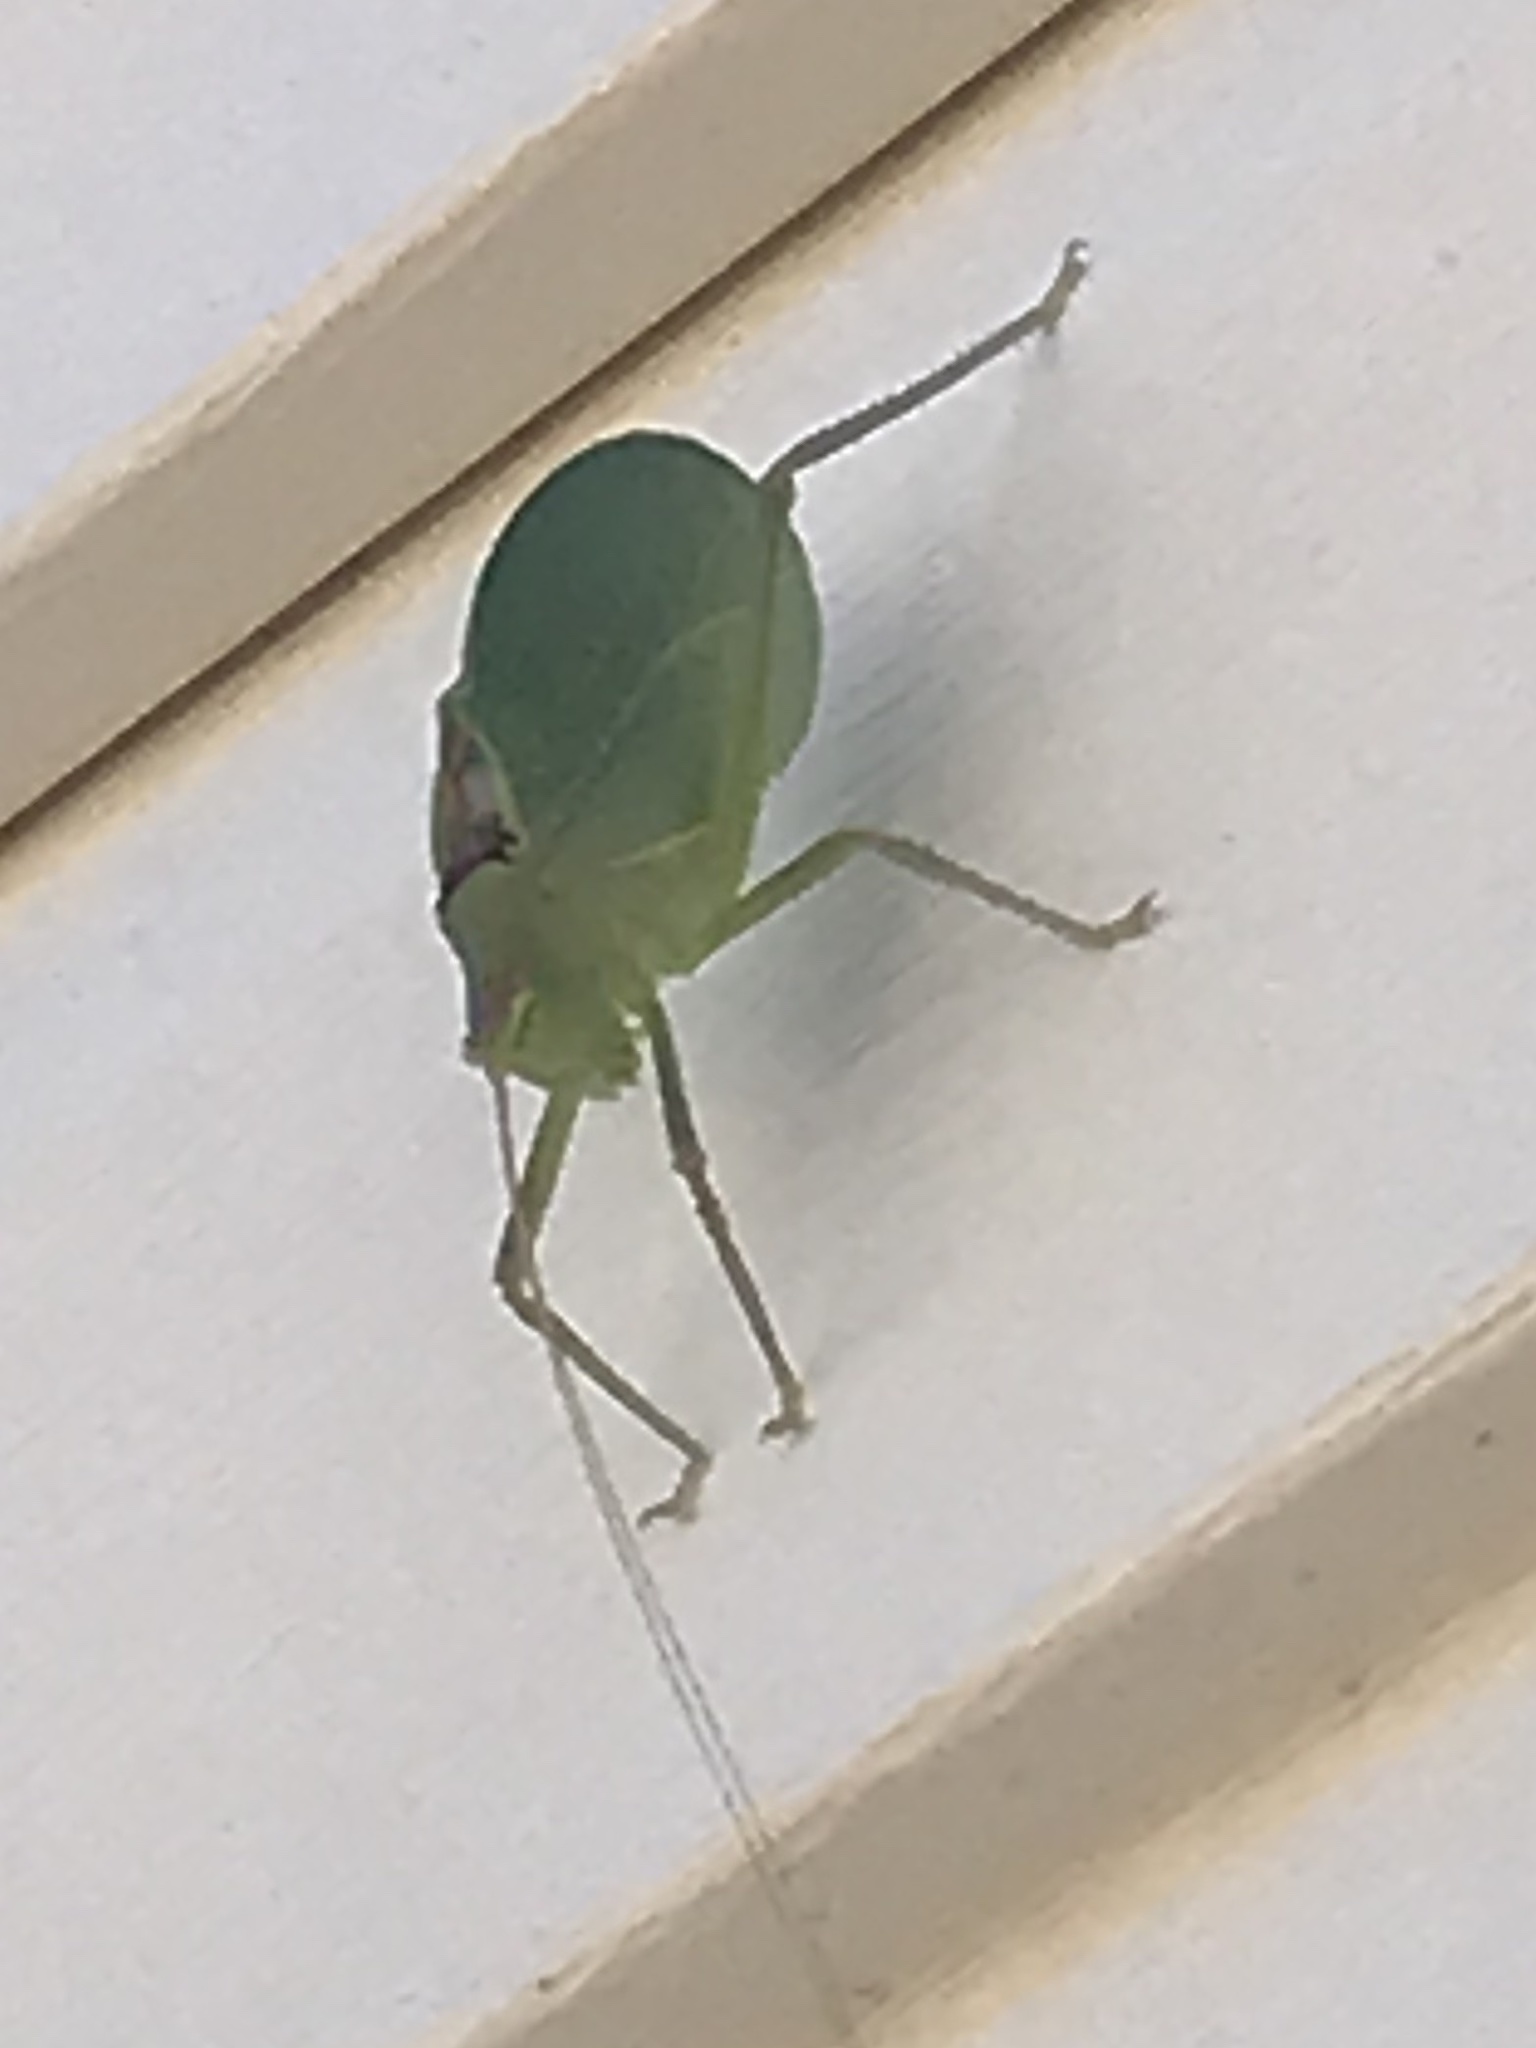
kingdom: Animalia
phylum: Arthropoda
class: Insecta
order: Orthoptera
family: Tettigoniidae
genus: Pterophylla
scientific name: Pterophylla camellifolia
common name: Common true katydid
